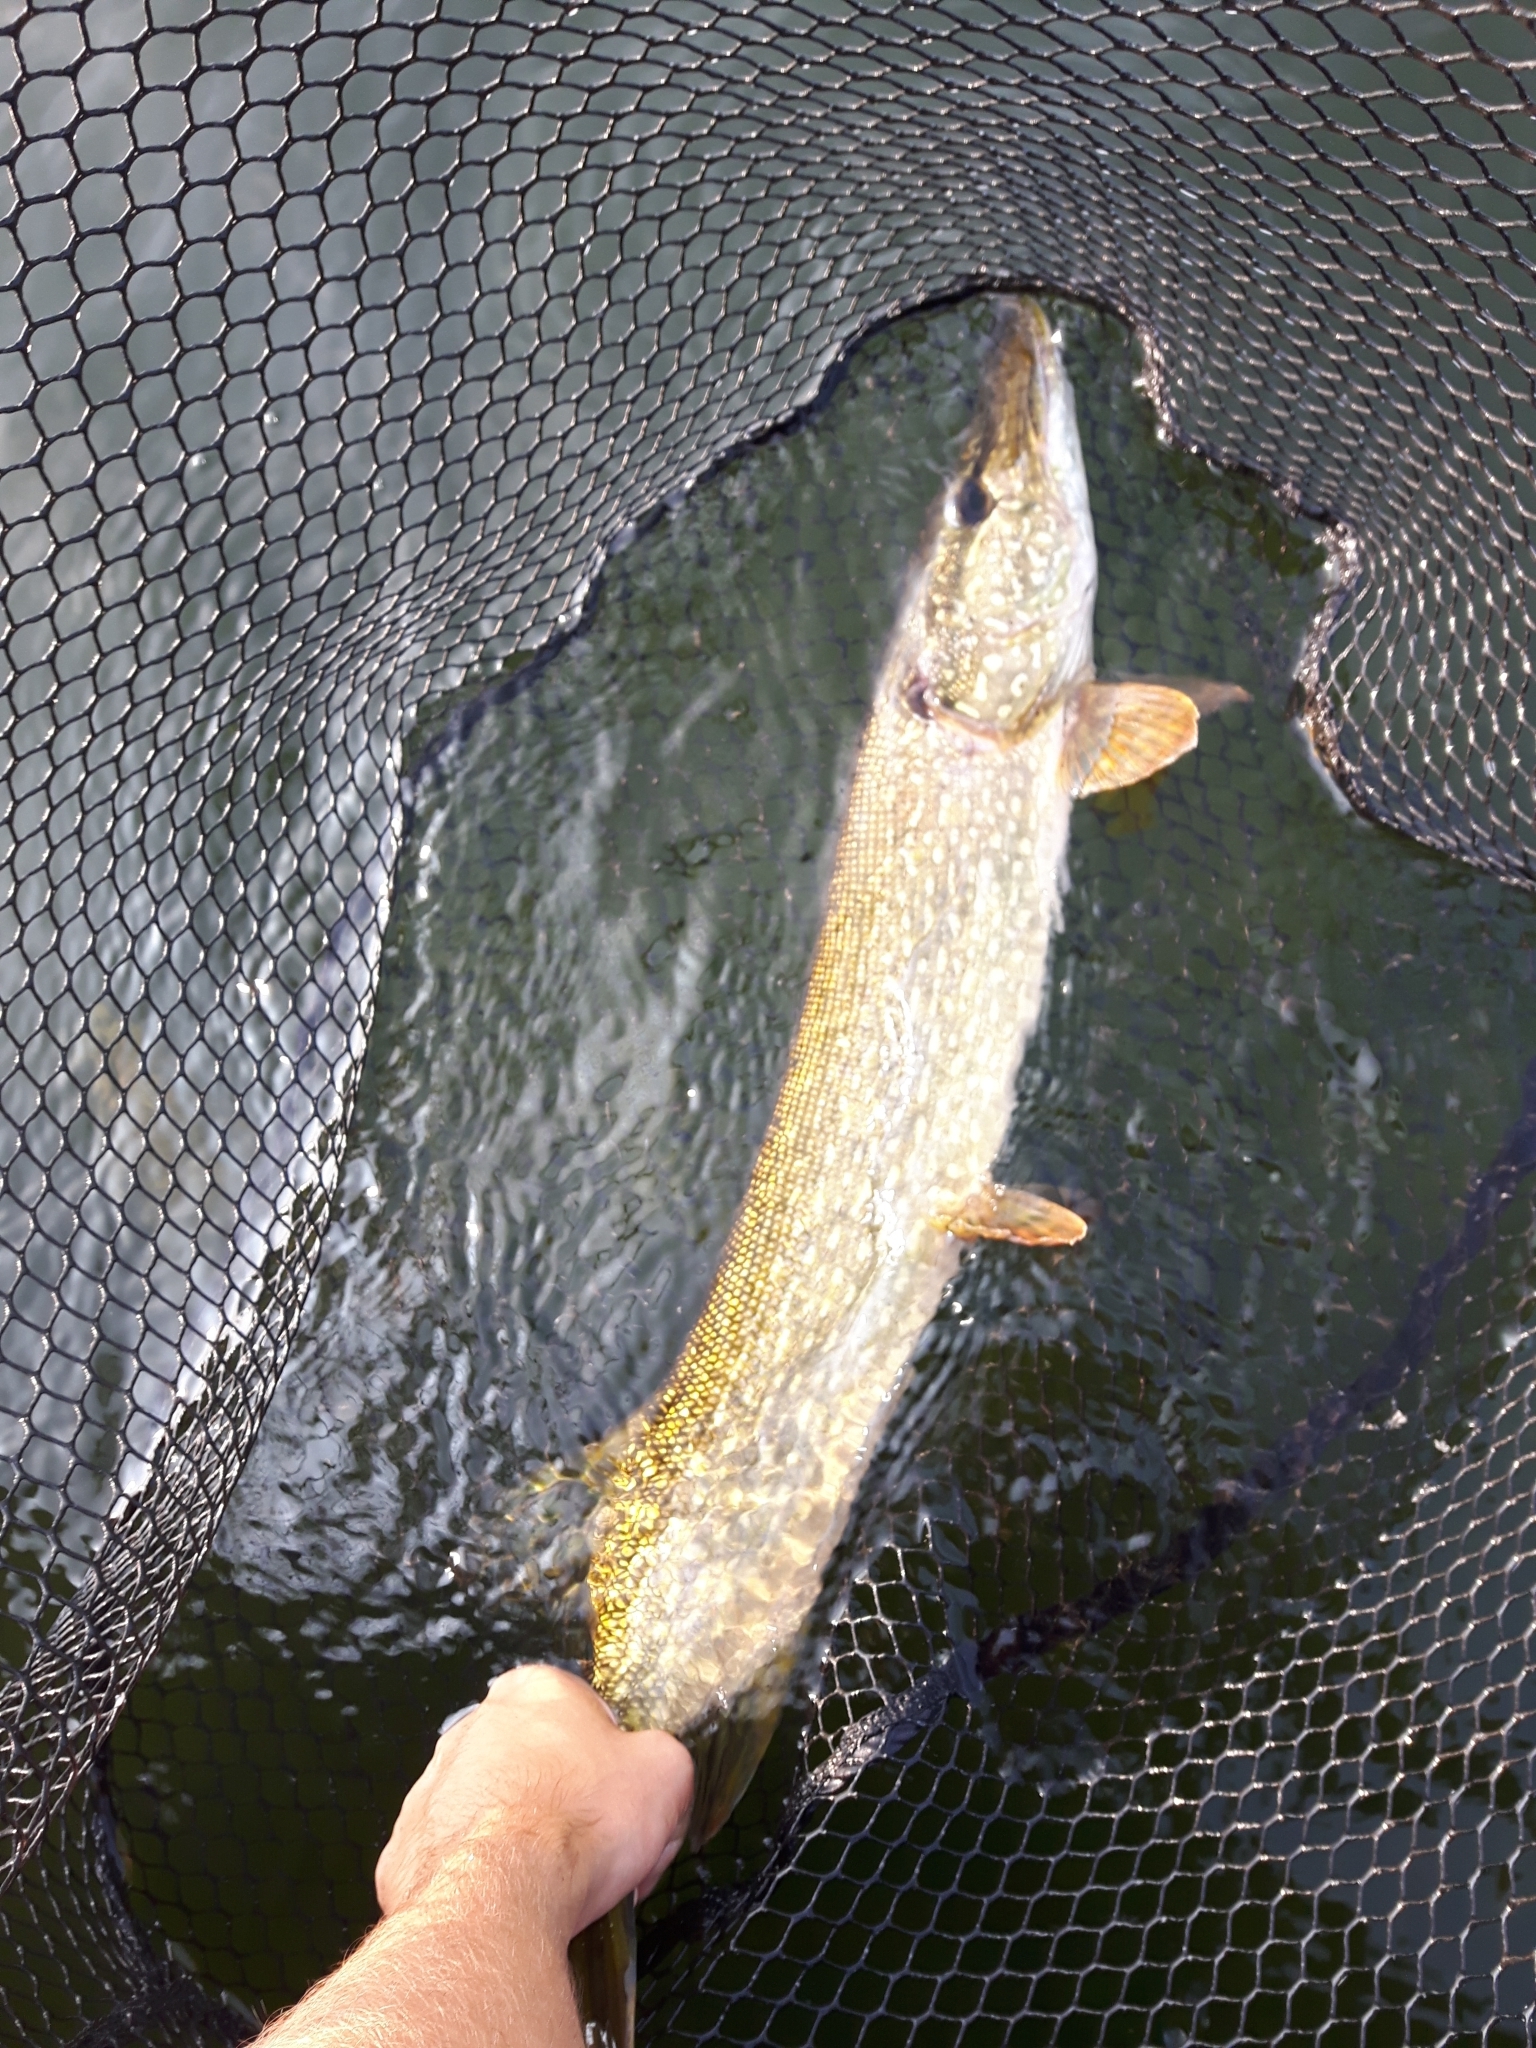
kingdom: Animalia
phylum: Chordata
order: Esociformes
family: Esocidae
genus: Esox
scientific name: Esox lucius
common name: Northern pike
